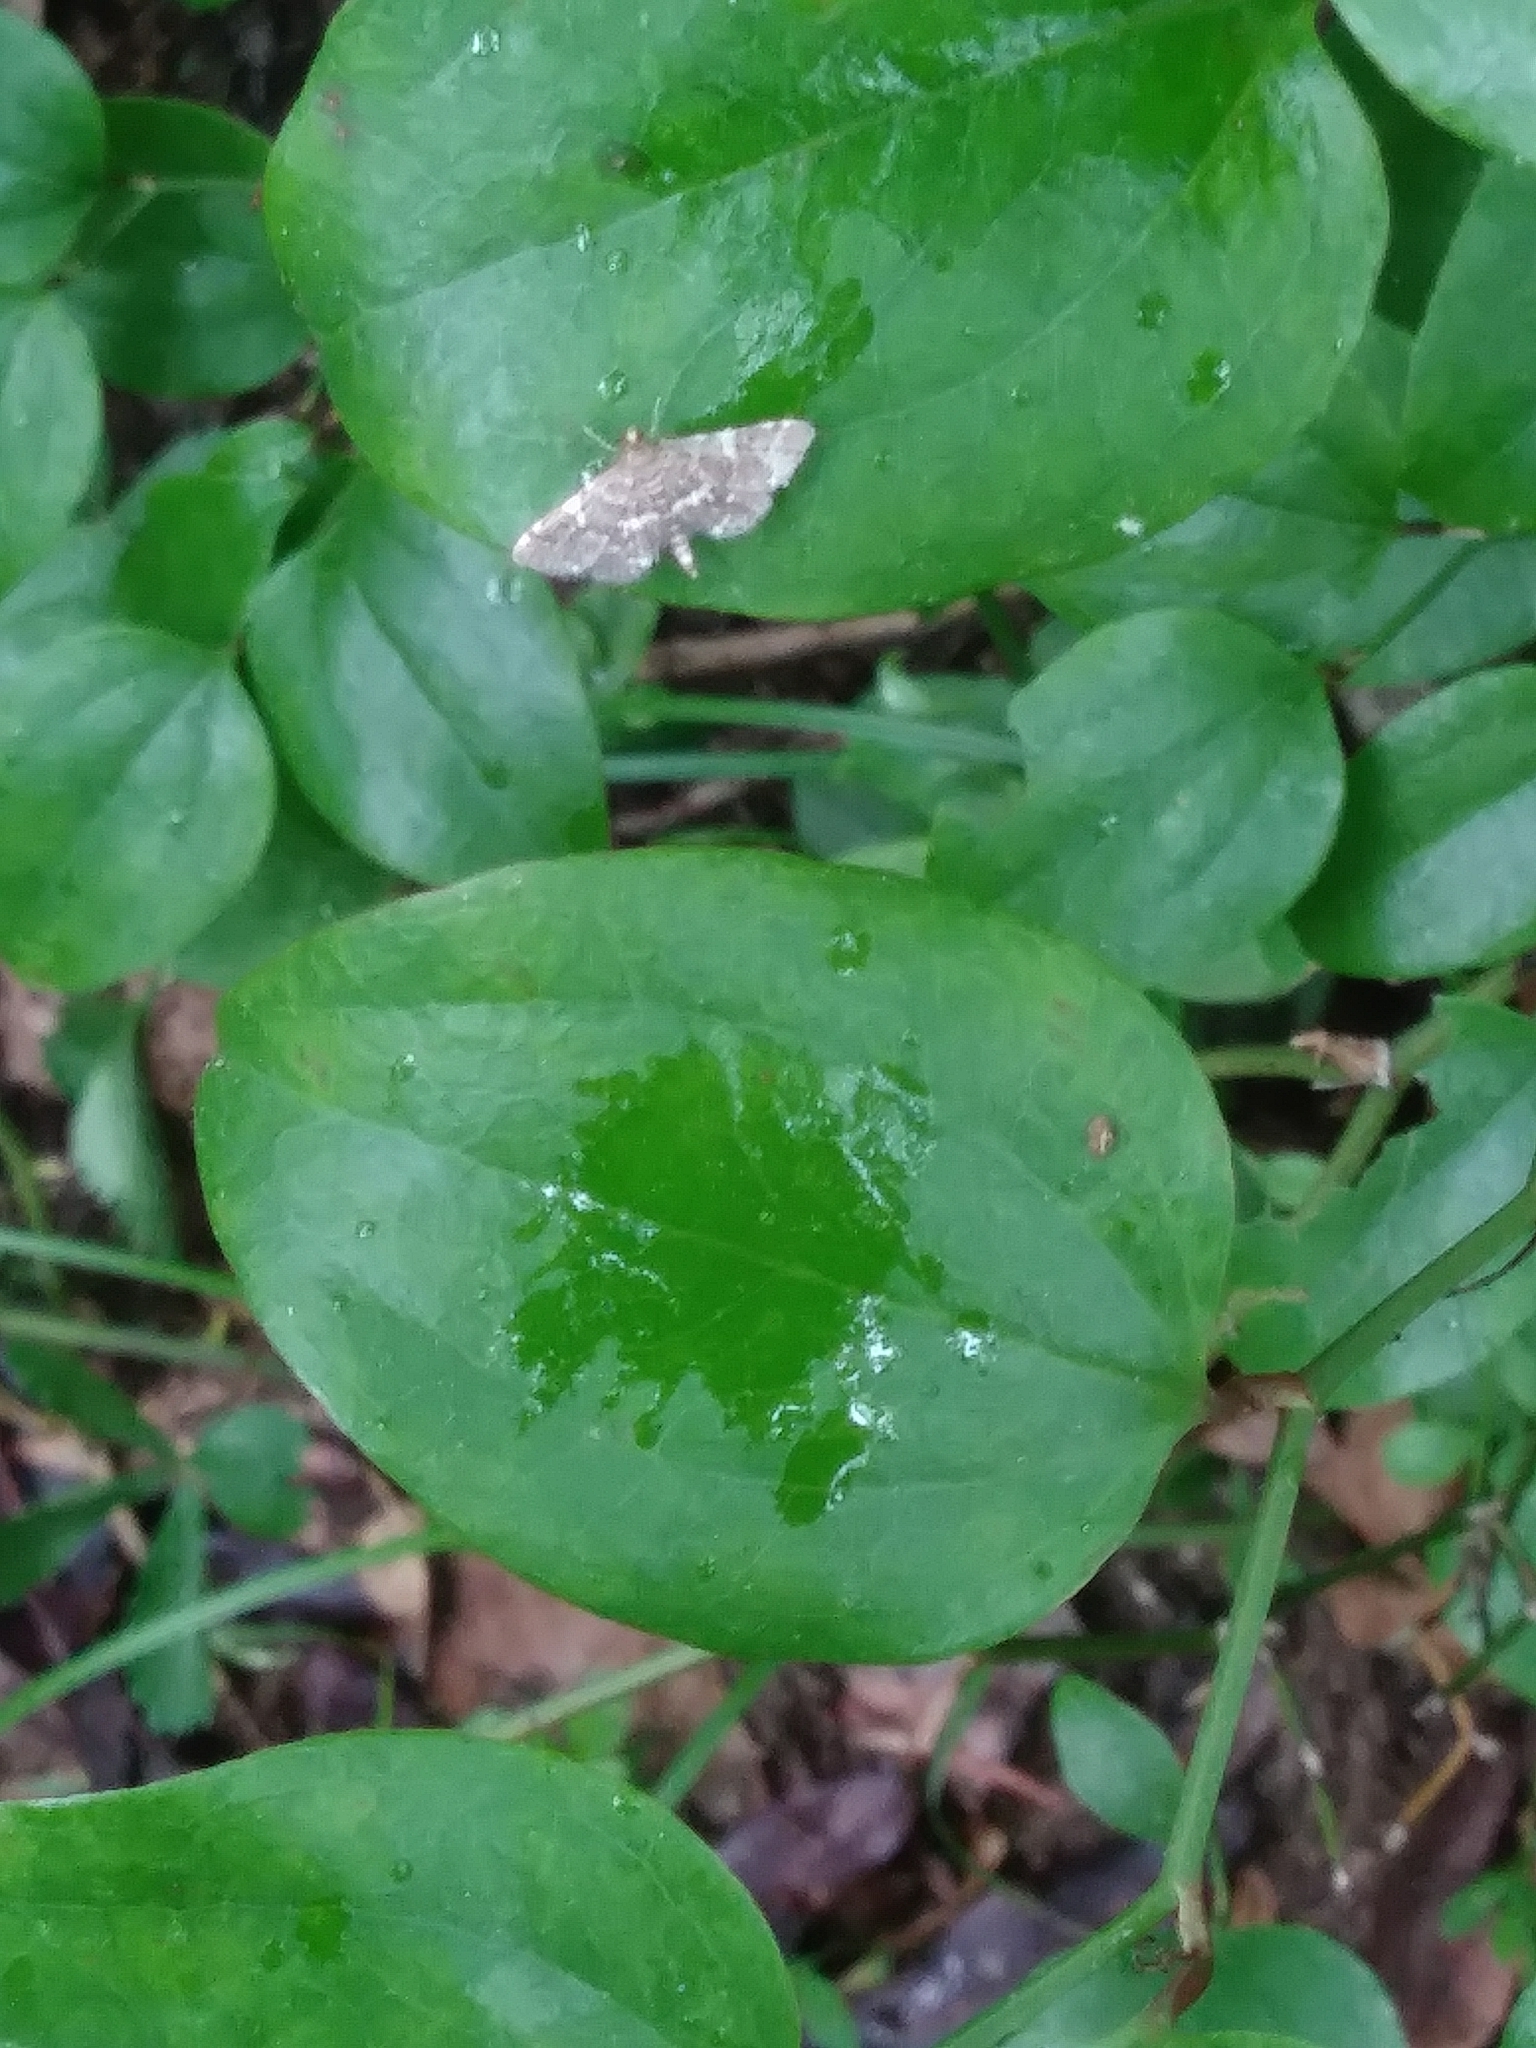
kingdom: Animalia
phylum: Arthropoda
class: Insecta
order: Lepidoptera
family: Crambidae
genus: Anageshna
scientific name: Anageshna primordialis
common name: Yellow-spotted webworm moth
